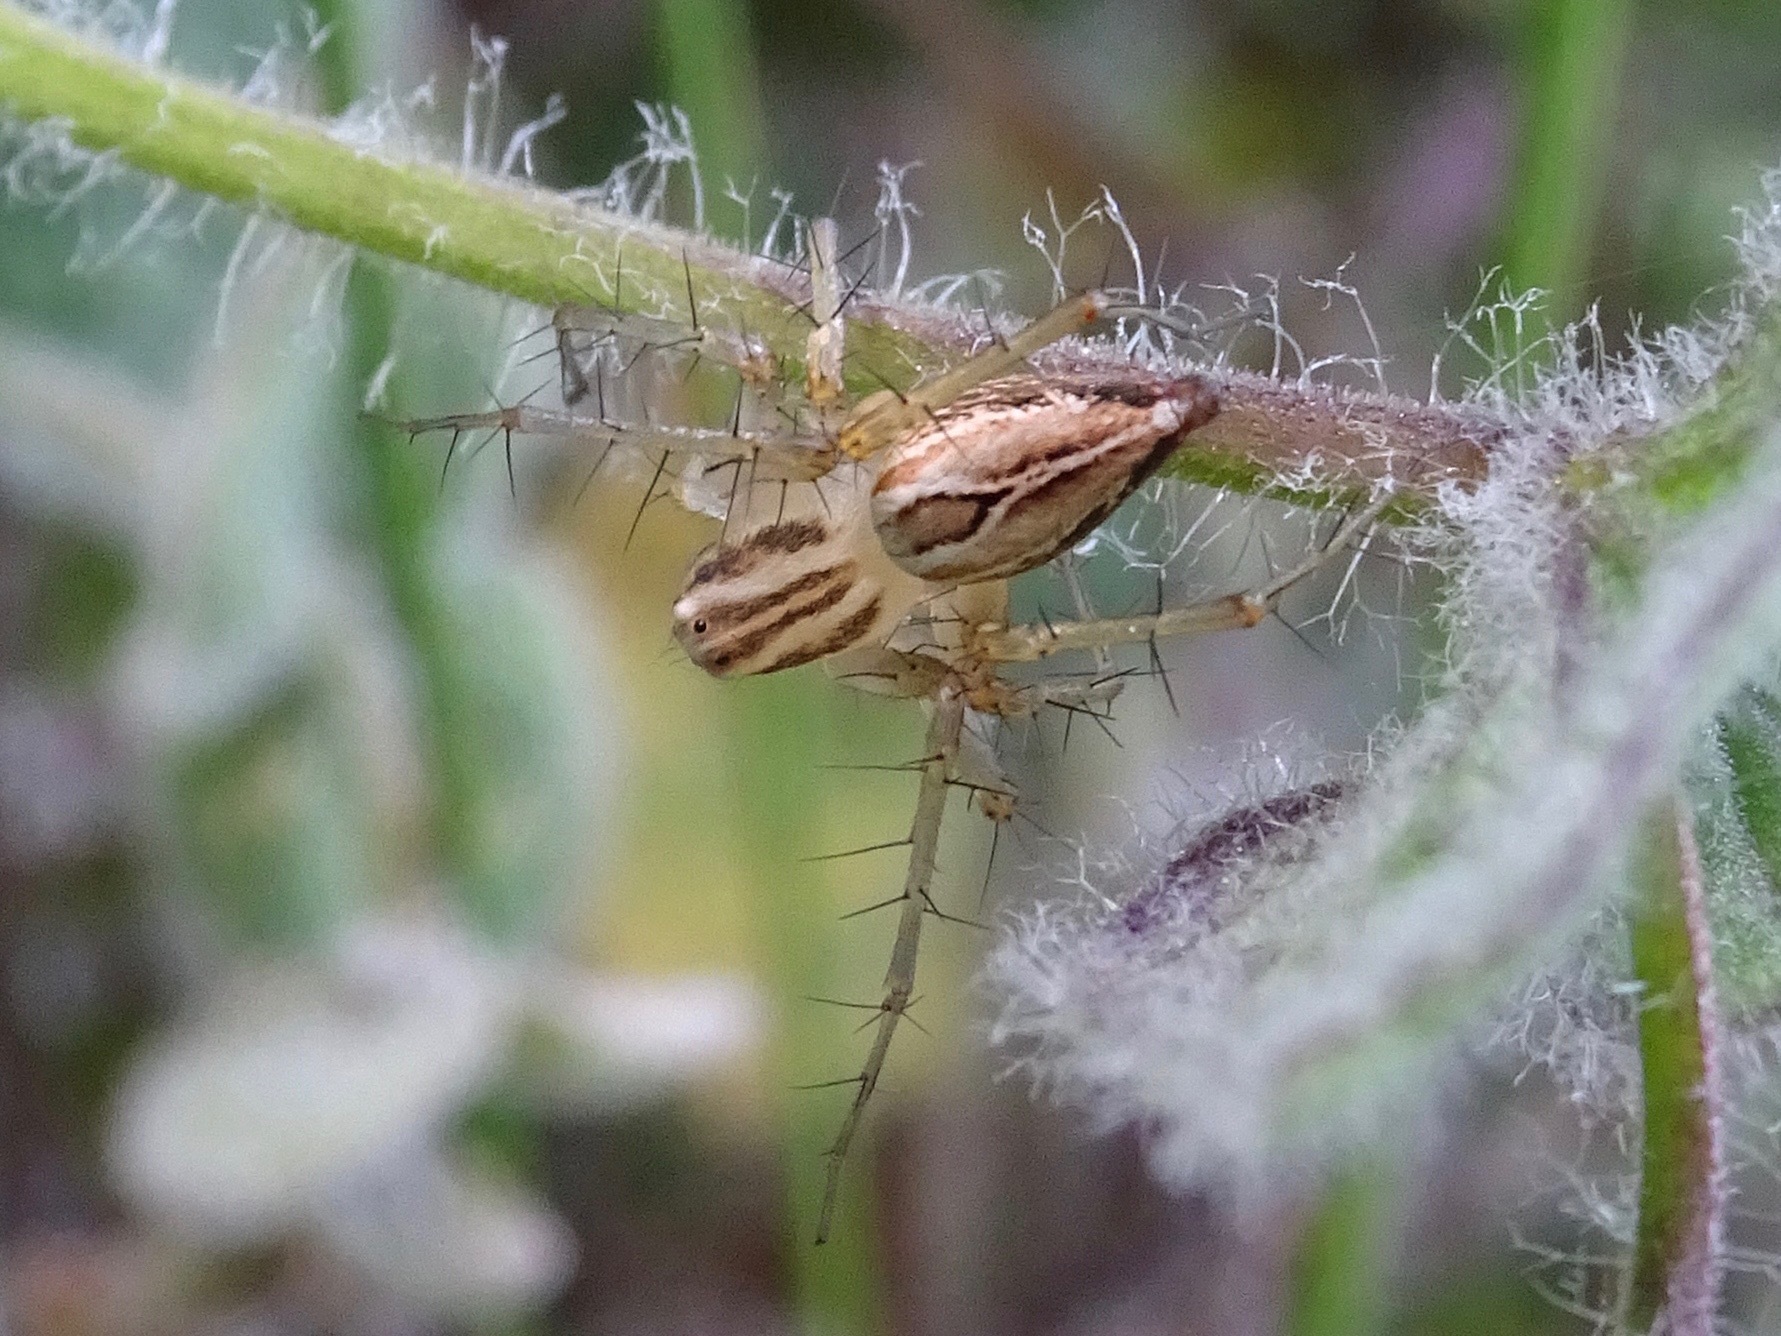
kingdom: Animalia
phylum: Arthropoda
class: Arachnida
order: Araneae
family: Oxyopidae
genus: Oxyopes
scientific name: Oxyopes salticus
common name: Lynx spiders
